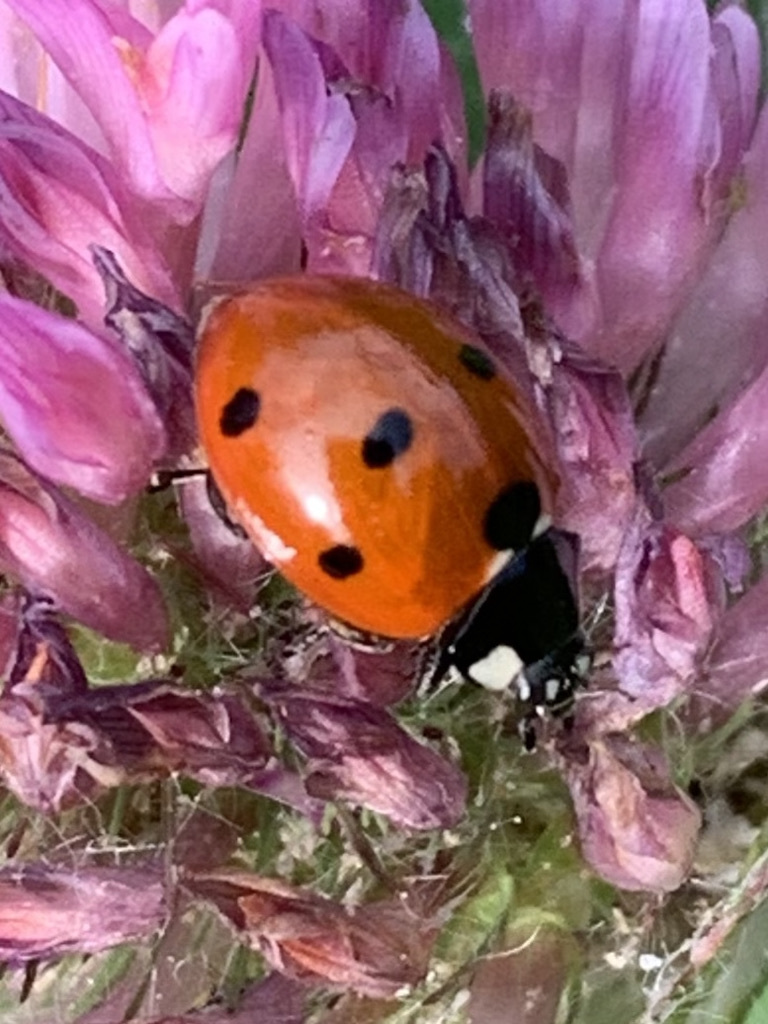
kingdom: Animalia
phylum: Arthropoda
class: Insecta
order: Coleoptera
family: Coccinellidae
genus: Coccinella
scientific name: Coccinella septempunctata
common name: Sevenspotted lady beetle
